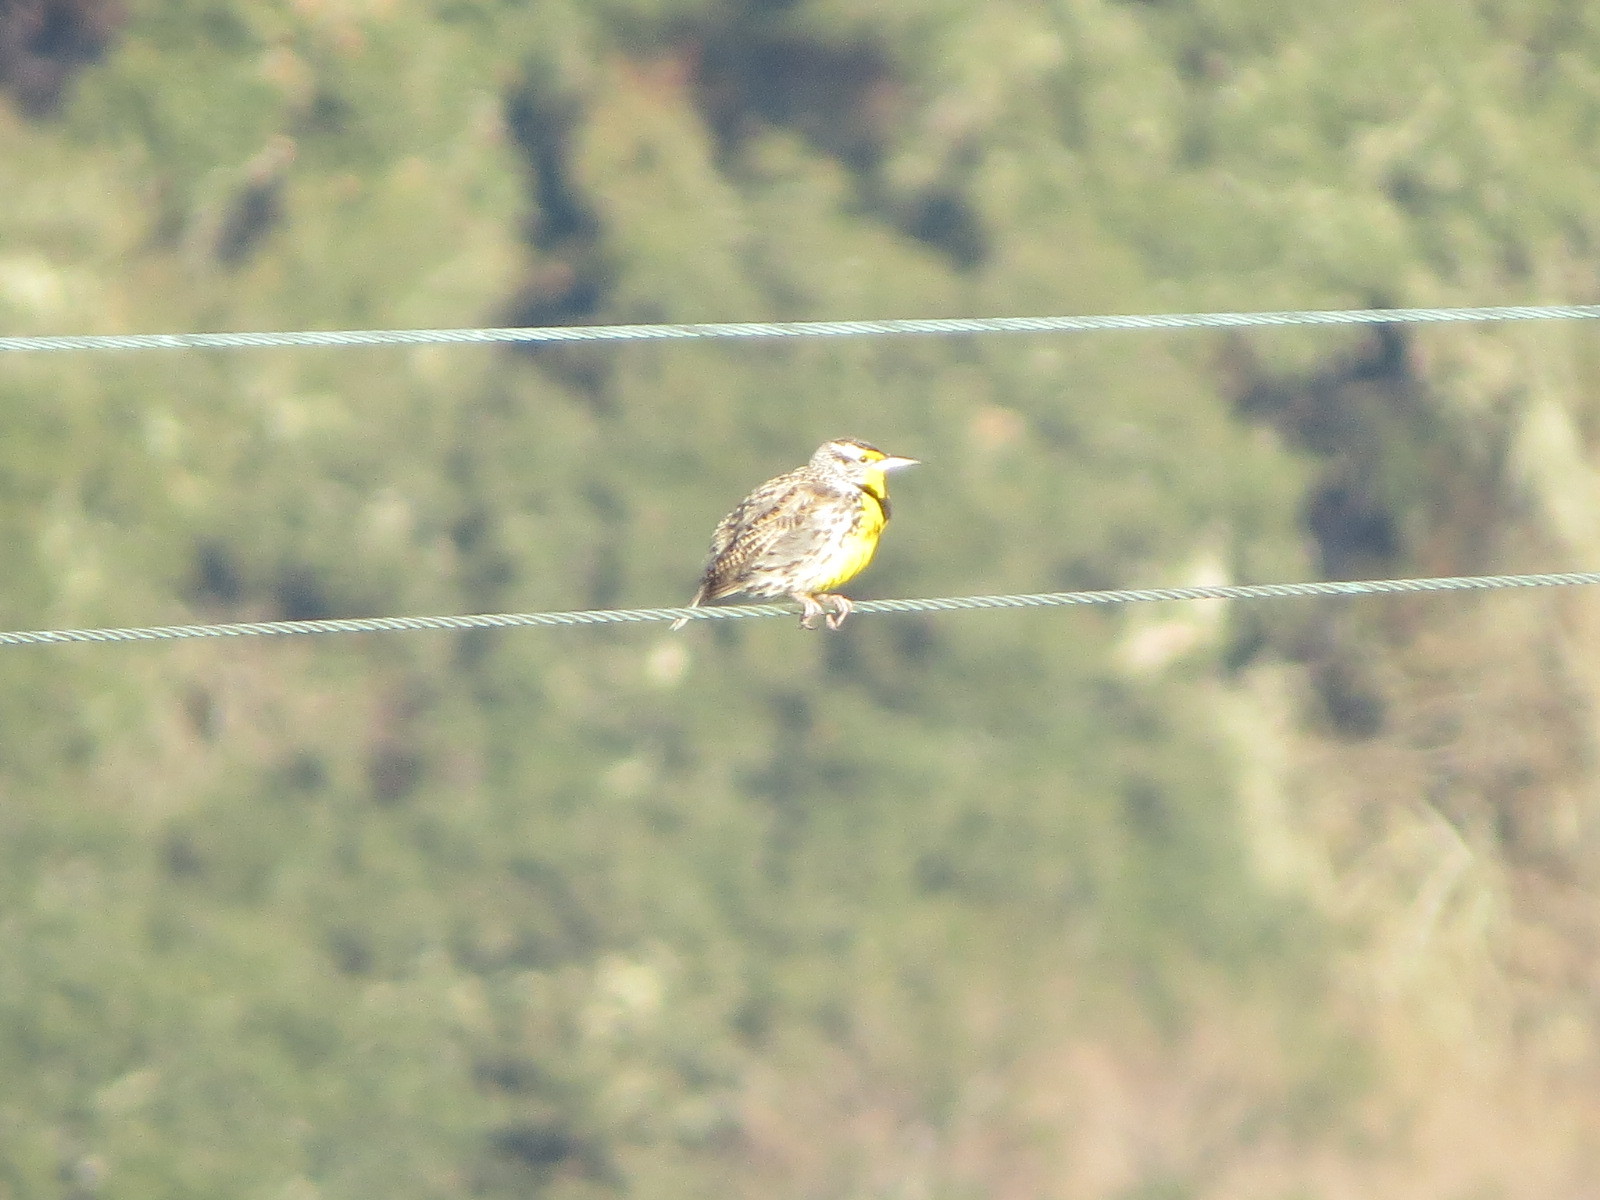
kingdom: Animalia
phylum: Chordata
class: Aves
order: Passeriformes
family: Icteridae
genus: Sturnella
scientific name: Sturnella neglecta
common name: Western meadowlark
